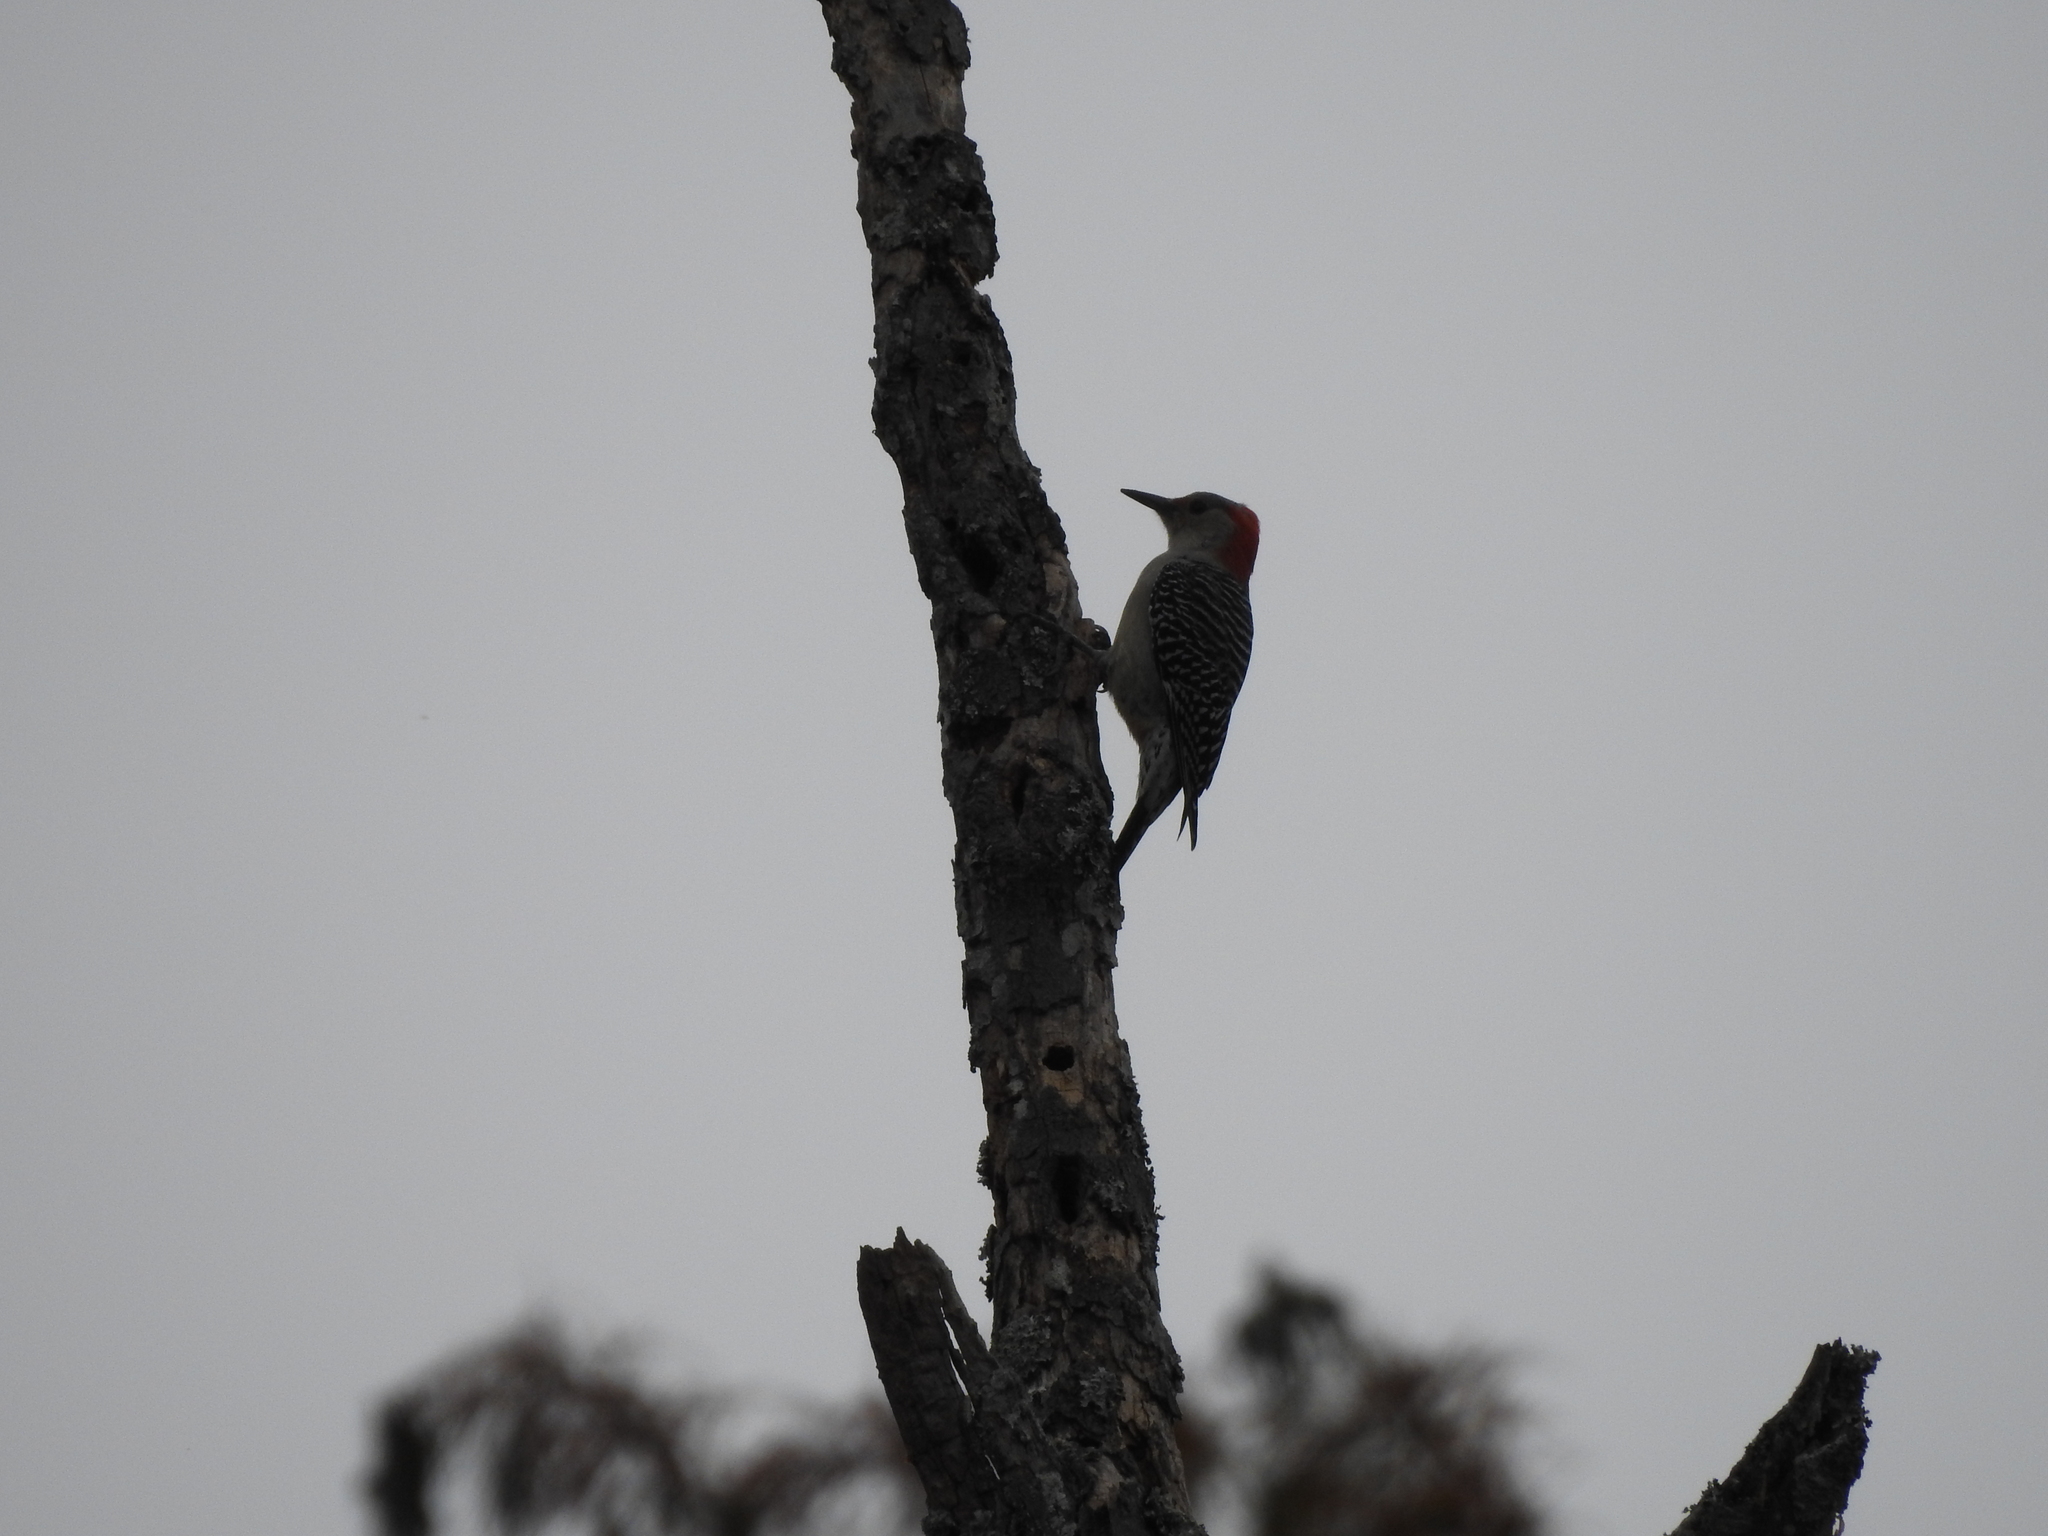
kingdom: Animalia
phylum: Chordata
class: Aves
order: Piciformes
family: Picidae
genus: Melanerpes
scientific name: Melanerpes carolinus
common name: Red-bellied woodpecker
